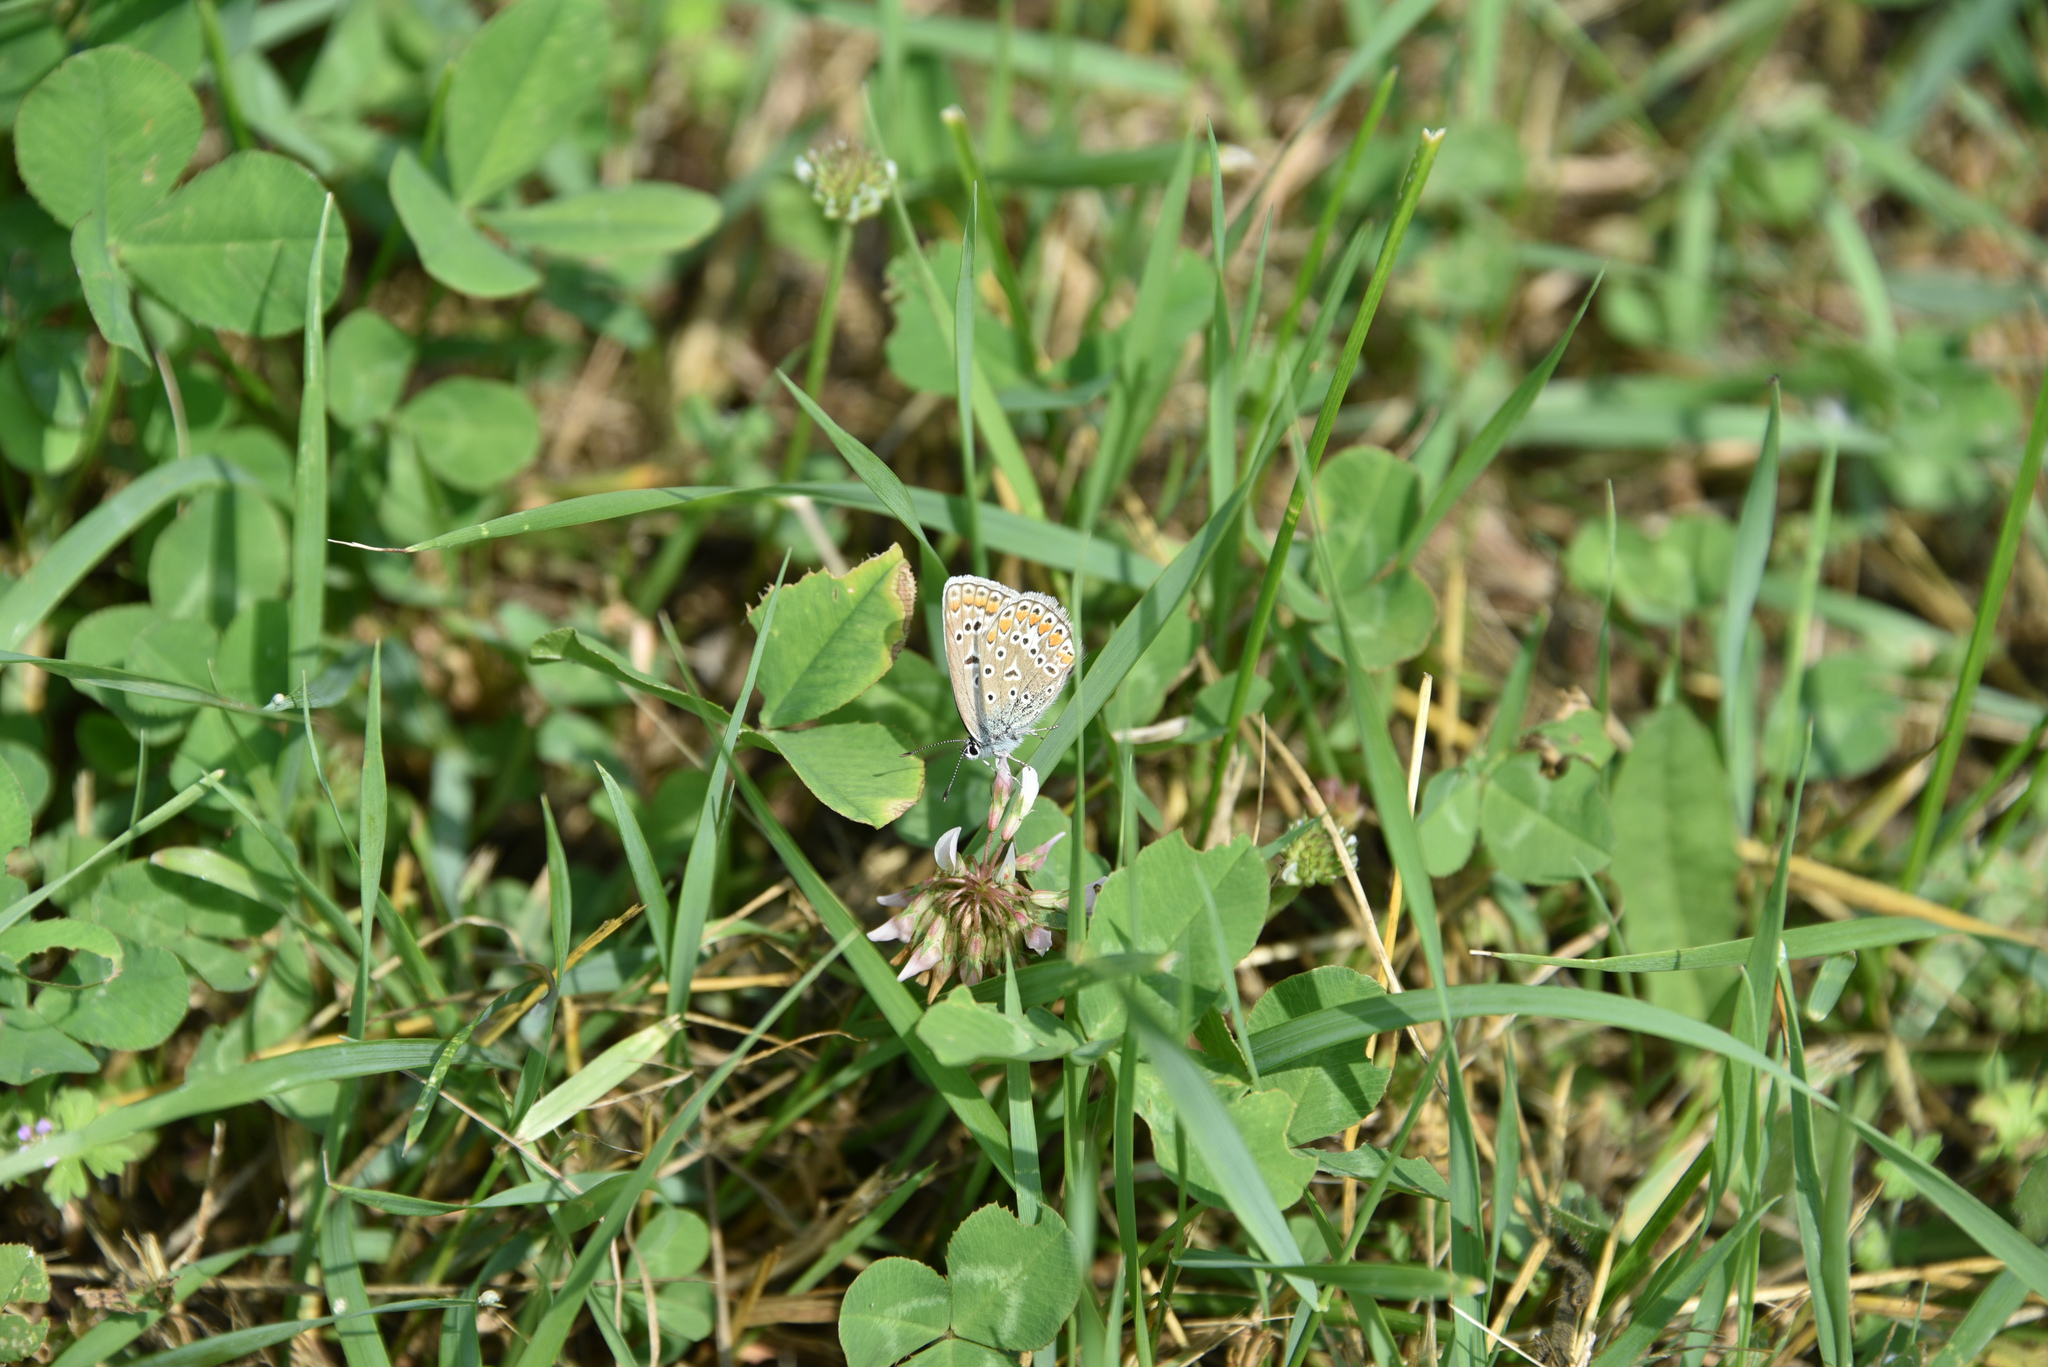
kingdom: Animalia
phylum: Arthropoda
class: Insecta
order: Lepidoptera
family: Lycaenidae
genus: Polyommatus
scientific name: Polyommatus icarus
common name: Common blue
